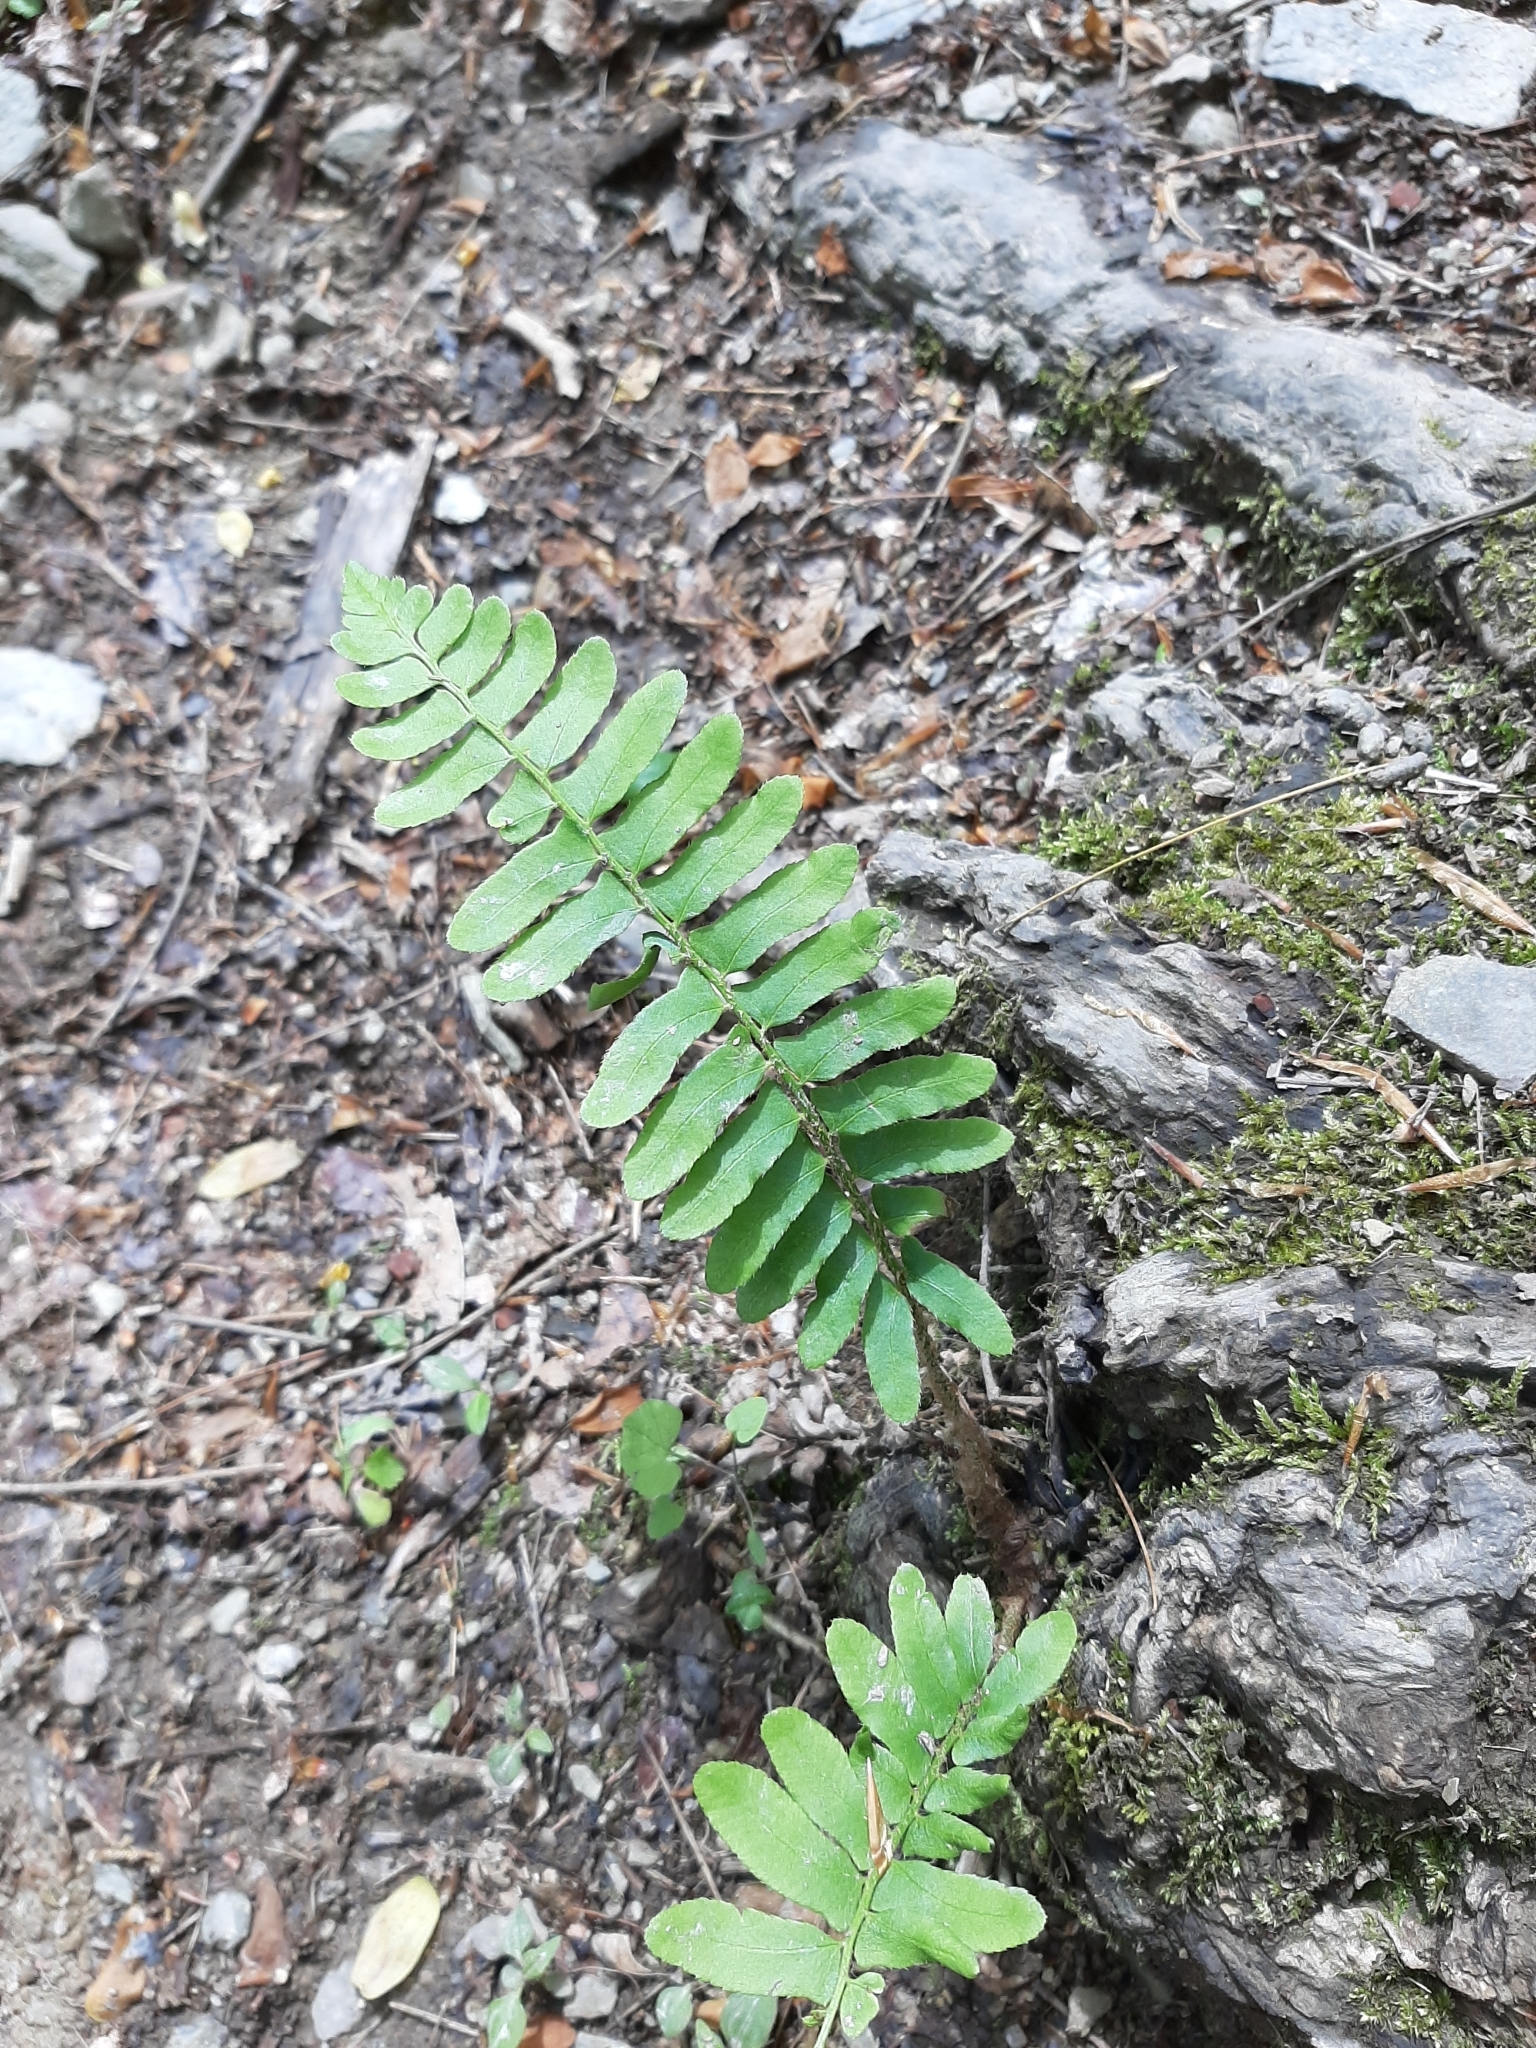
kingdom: Plantae
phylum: Tracheophyta
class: Polypodiopsida
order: Polypodiales
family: Dryopteridaceae
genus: Polystichum
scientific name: Polystichum acrostichoides
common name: Christmas fern
